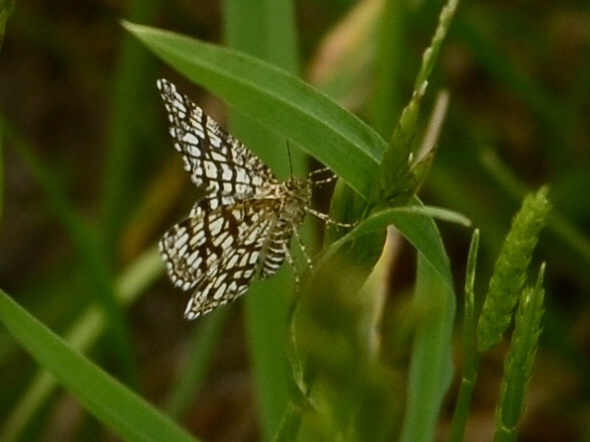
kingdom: Animalia
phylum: Arthropoda
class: Insecta
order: Lepidoptera
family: Geometridae
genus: Chiasmia
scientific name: Chiasmia clathrata
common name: Latticed heath
